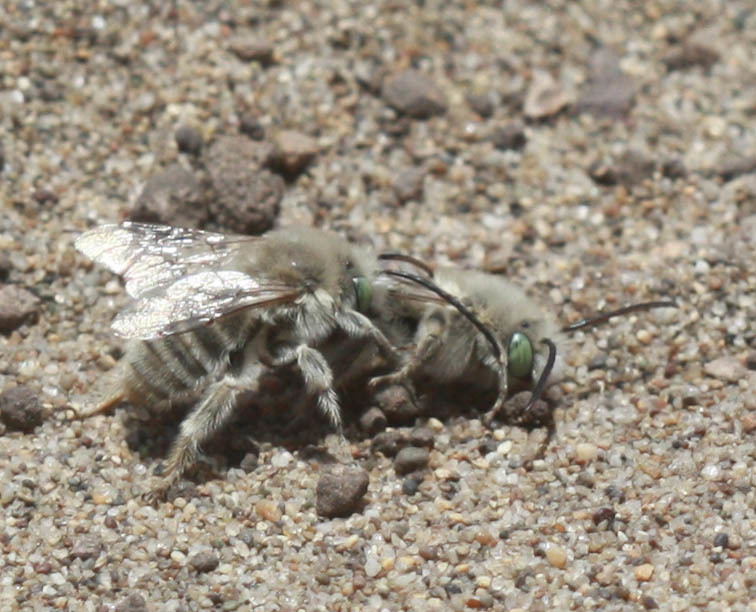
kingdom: Animalia
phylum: Arthropoda
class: Insecta
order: Hymenoptera
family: Apidae
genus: Melissodes
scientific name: Melissodes pallidisignatus
